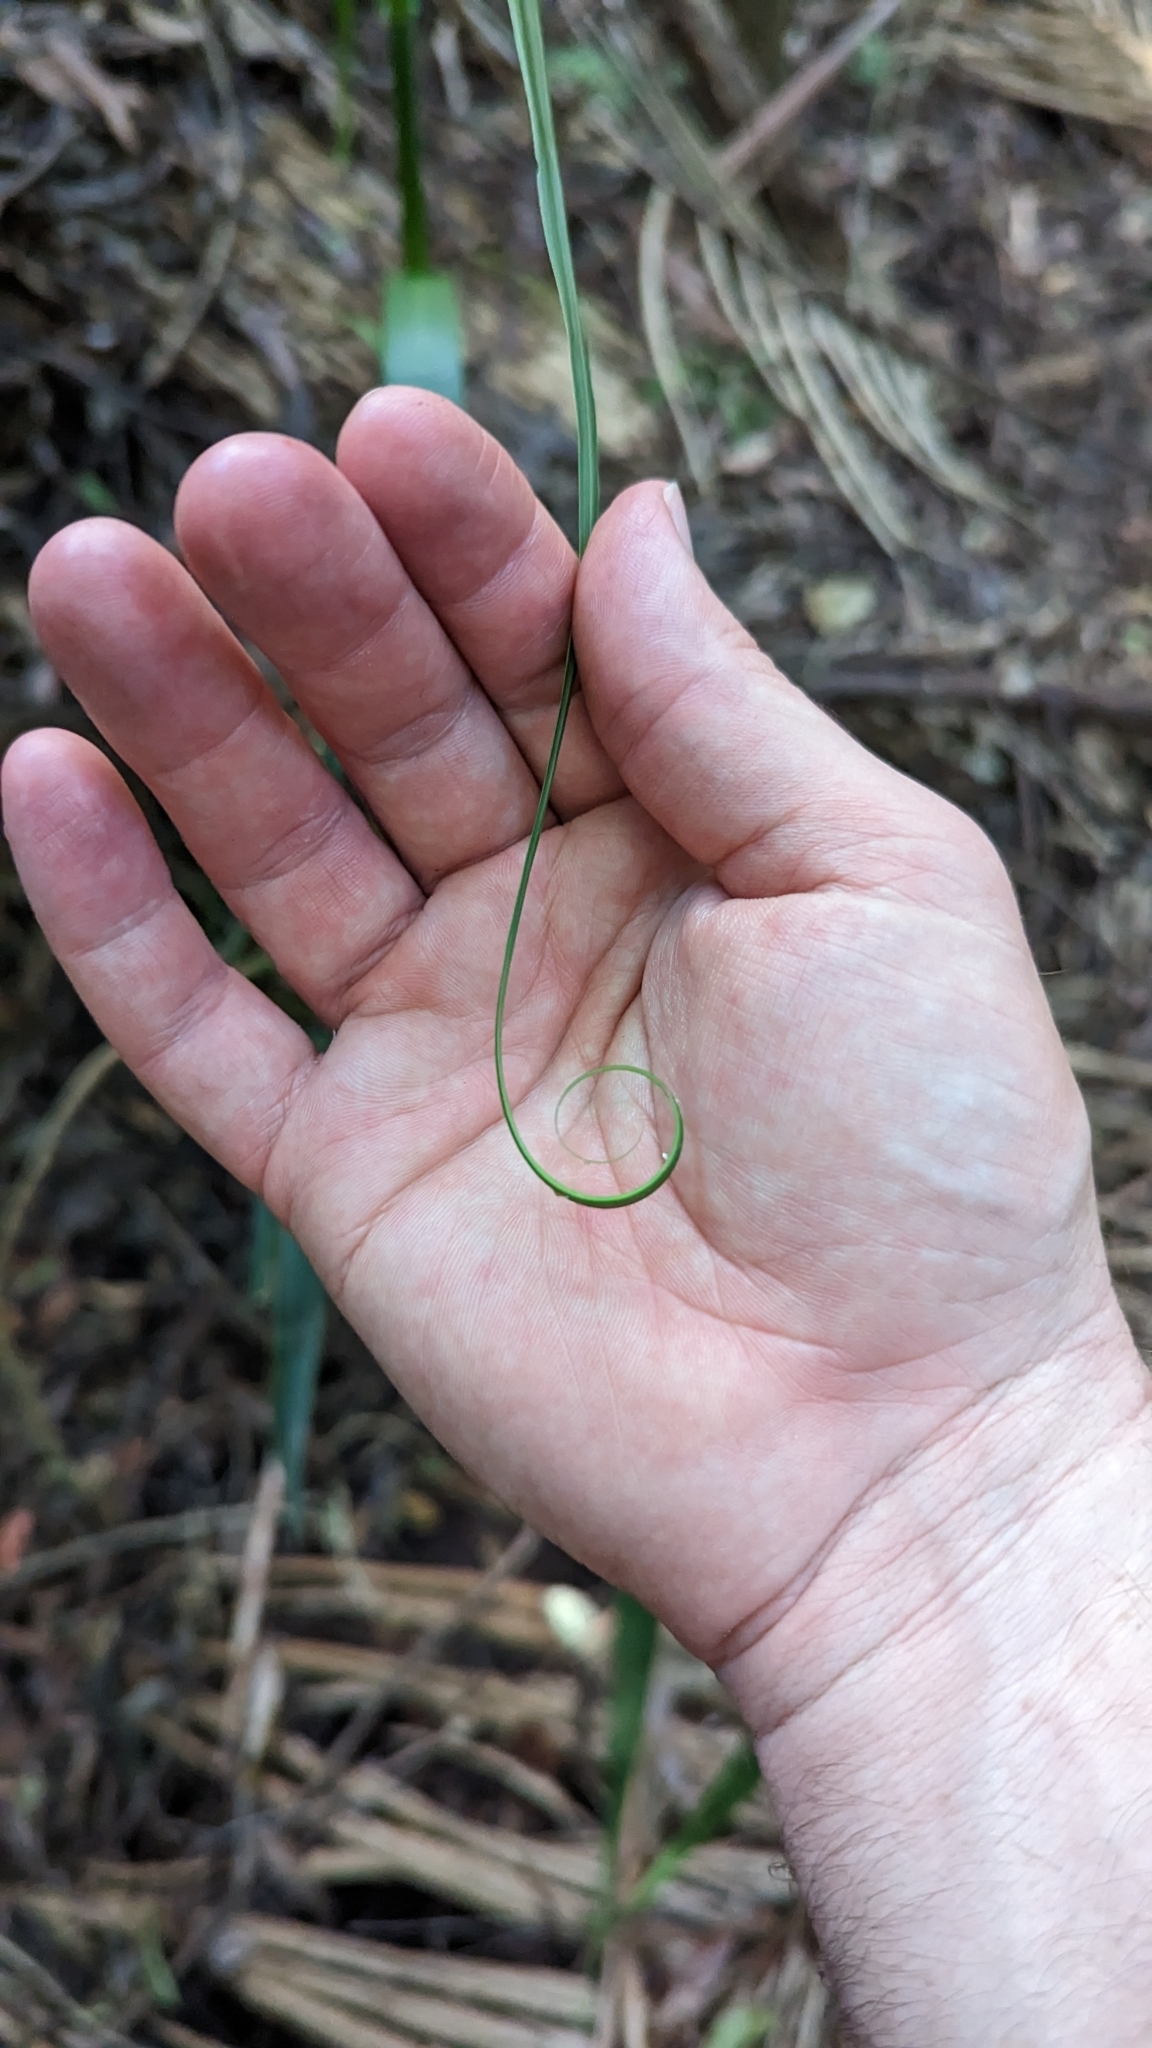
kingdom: Plantae
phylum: Tracheophyta
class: Liliopsida
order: Poales
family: Flagellariaceae
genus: Flagellaria
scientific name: Flagellaria indica
